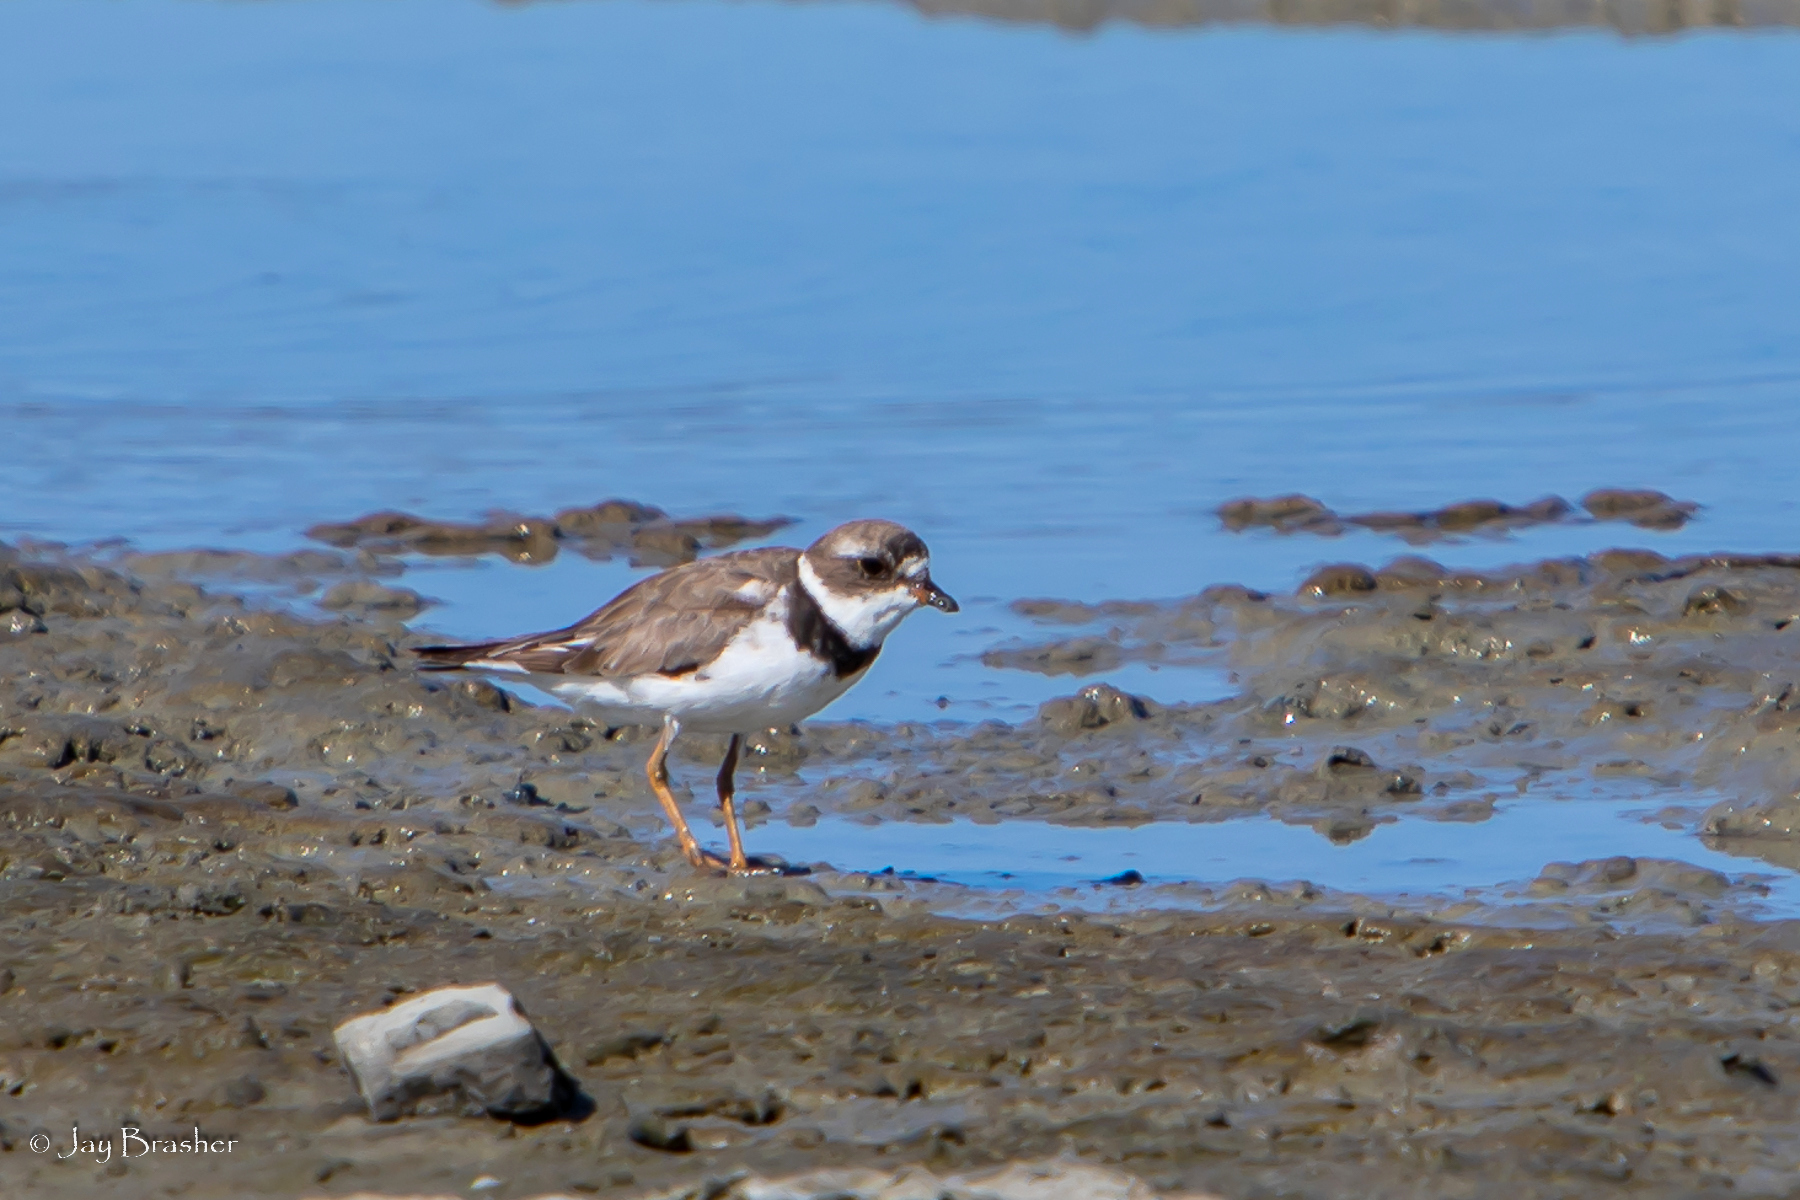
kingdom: Animalia
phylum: Chordata
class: Aves
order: Charadriiformes
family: Charadriidae
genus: Charadrius
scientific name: Charadrius semipalmatus
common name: Semipalmated plover
